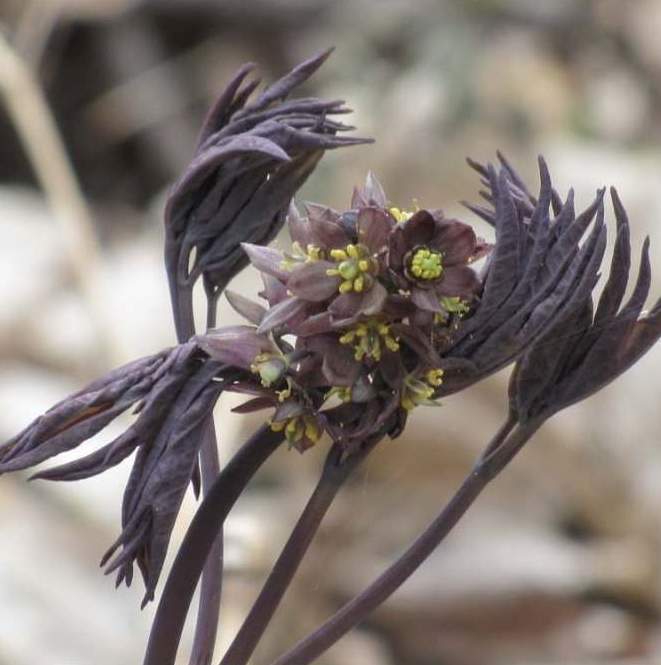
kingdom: Plantae
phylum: Tracheophyta
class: Magnoliopsida
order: Ranunculales
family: Berberidaceae
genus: Caulophyllum
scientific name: Caulophyllum giganteum
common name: Blue cohosh
